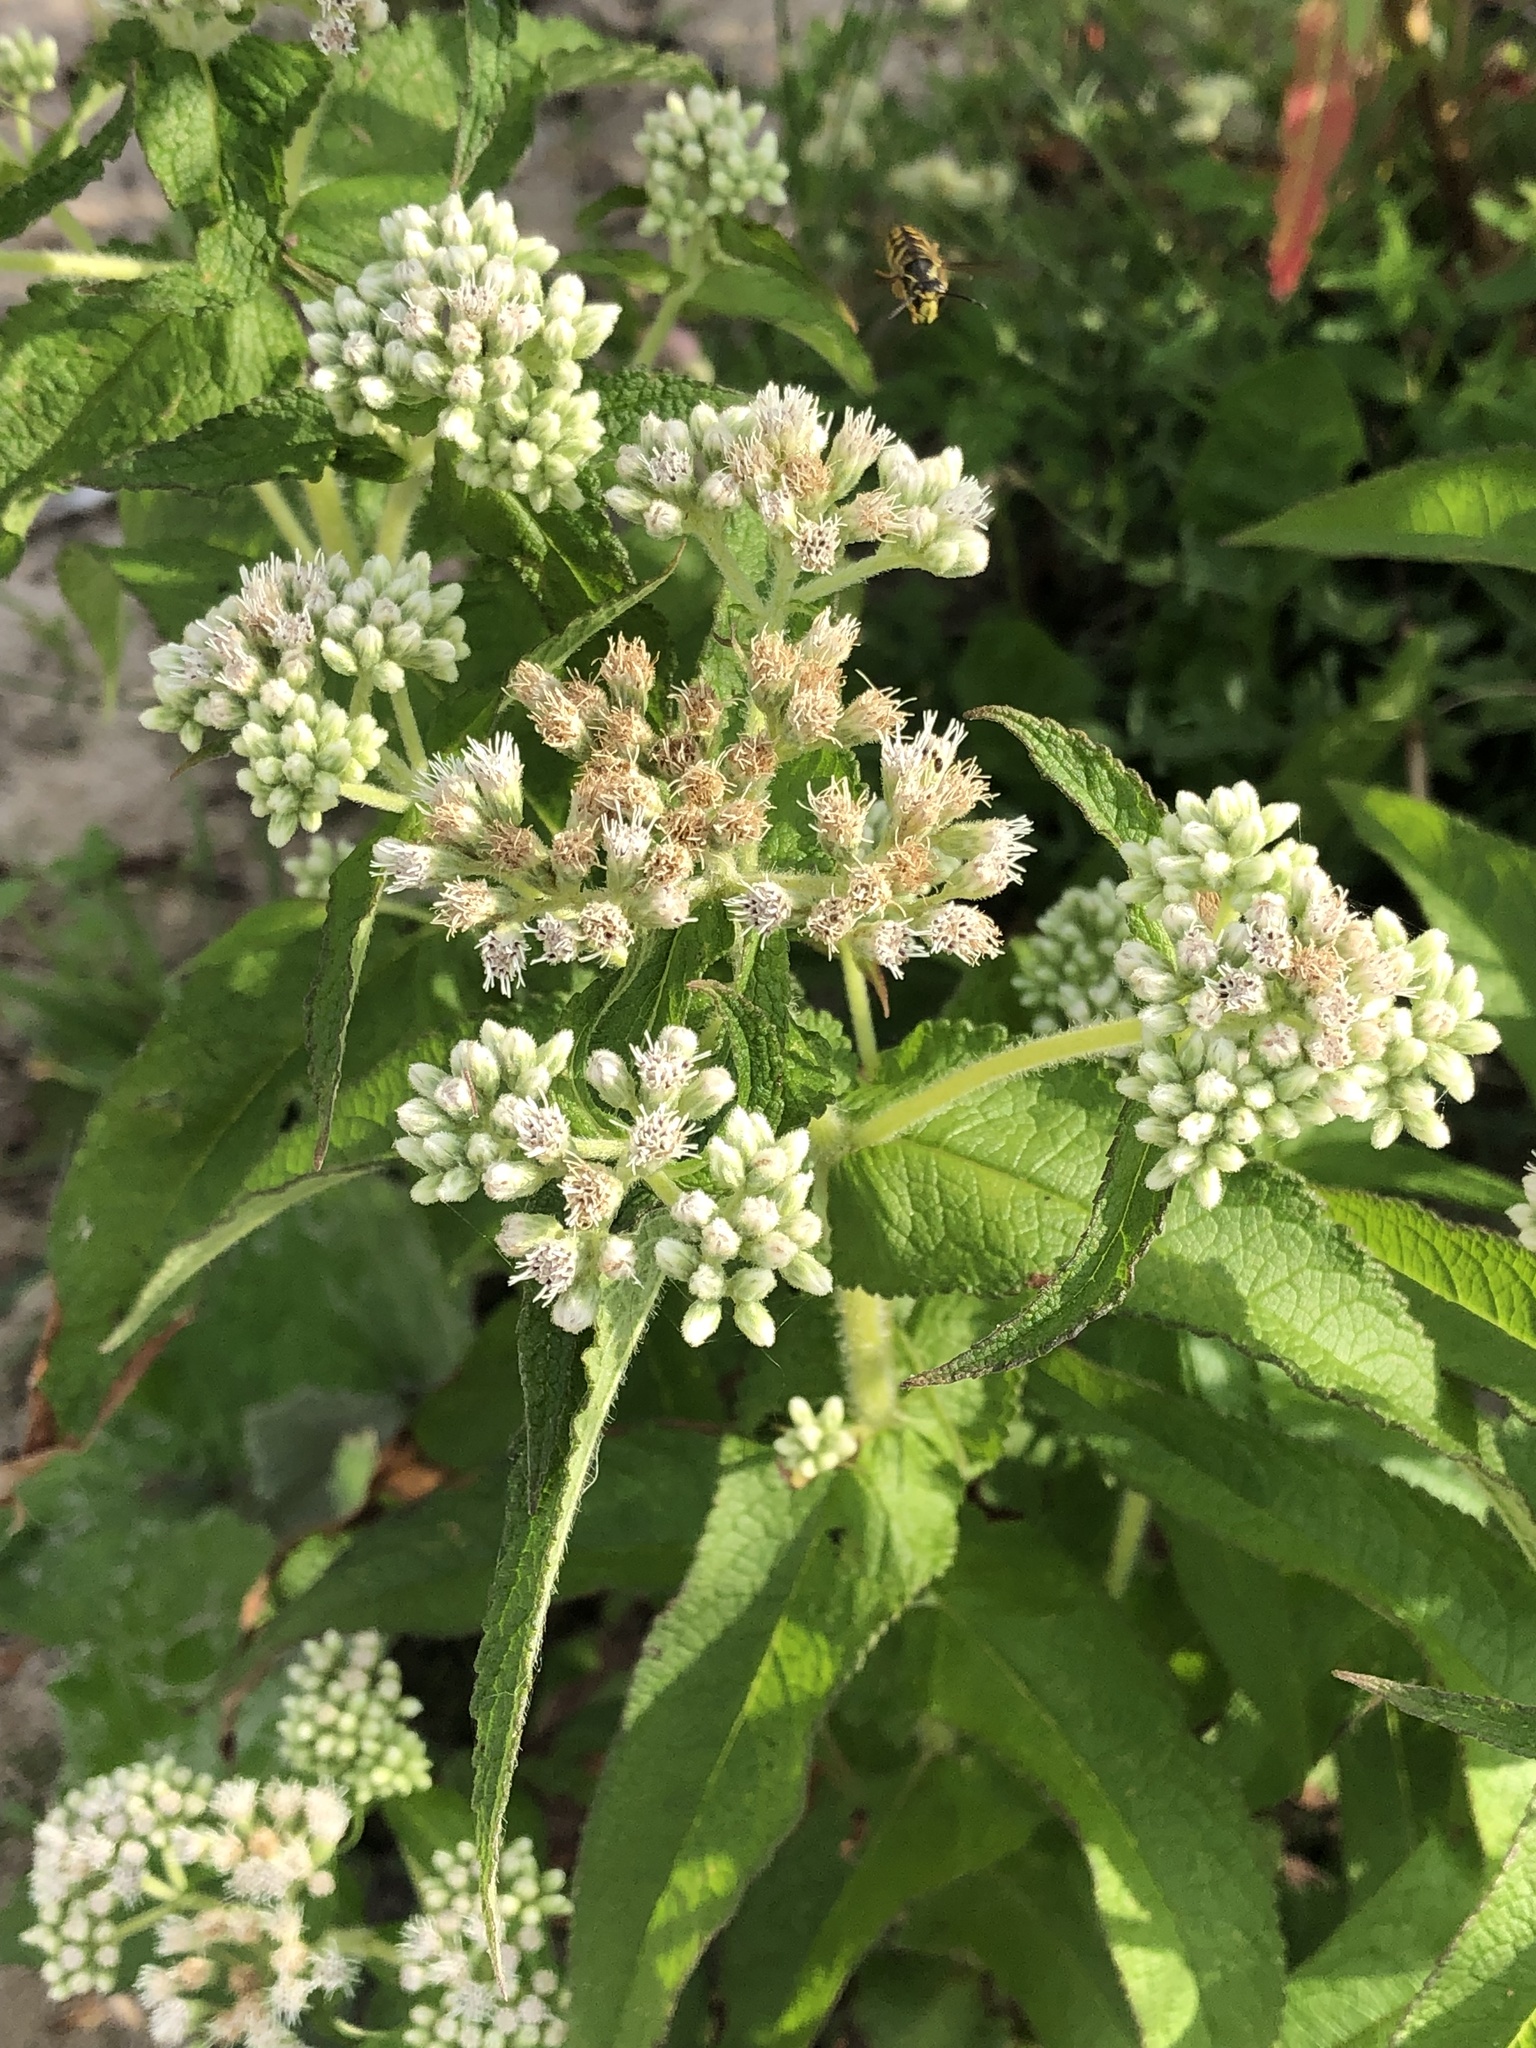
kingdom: Plantae
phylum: Tracheophyta
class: Magnoliopsida
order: Asterales
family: Asteraceae
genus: Eupatorium
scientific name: Eupatorium perfoliatum
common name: Boneset
